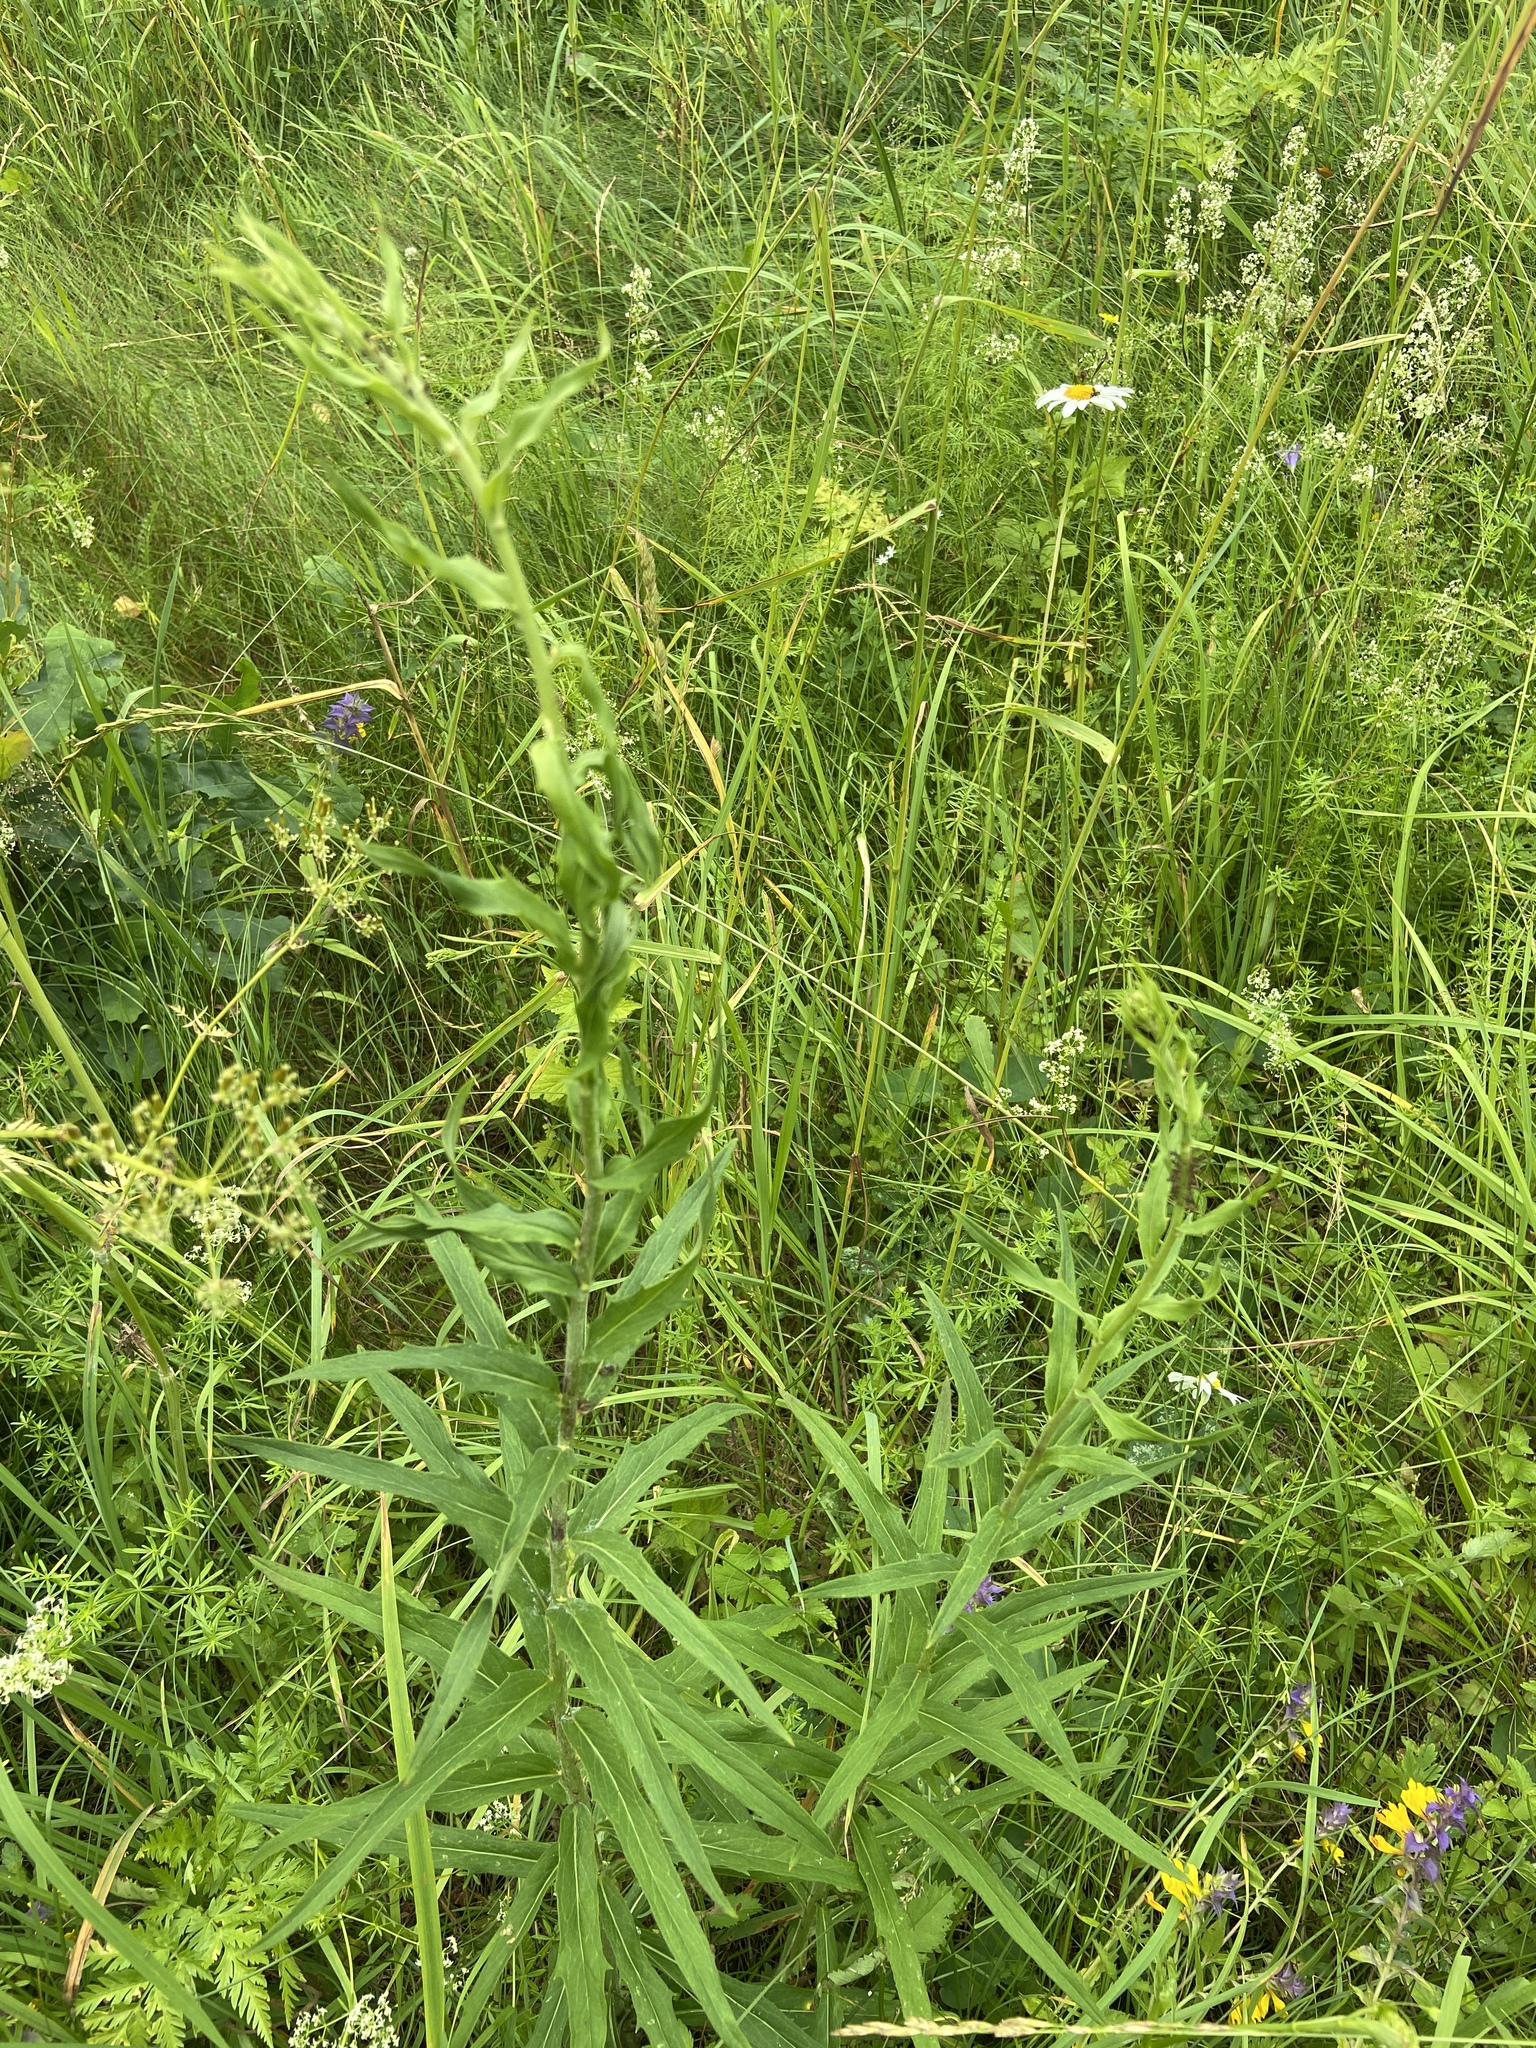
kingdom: Plantae
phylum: Tracheophyta
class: Magnoliopsida
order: Asterales
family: Asteraceae
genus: Hieracium
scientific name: Hieracium umbellatum
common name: Northern hawkweed
